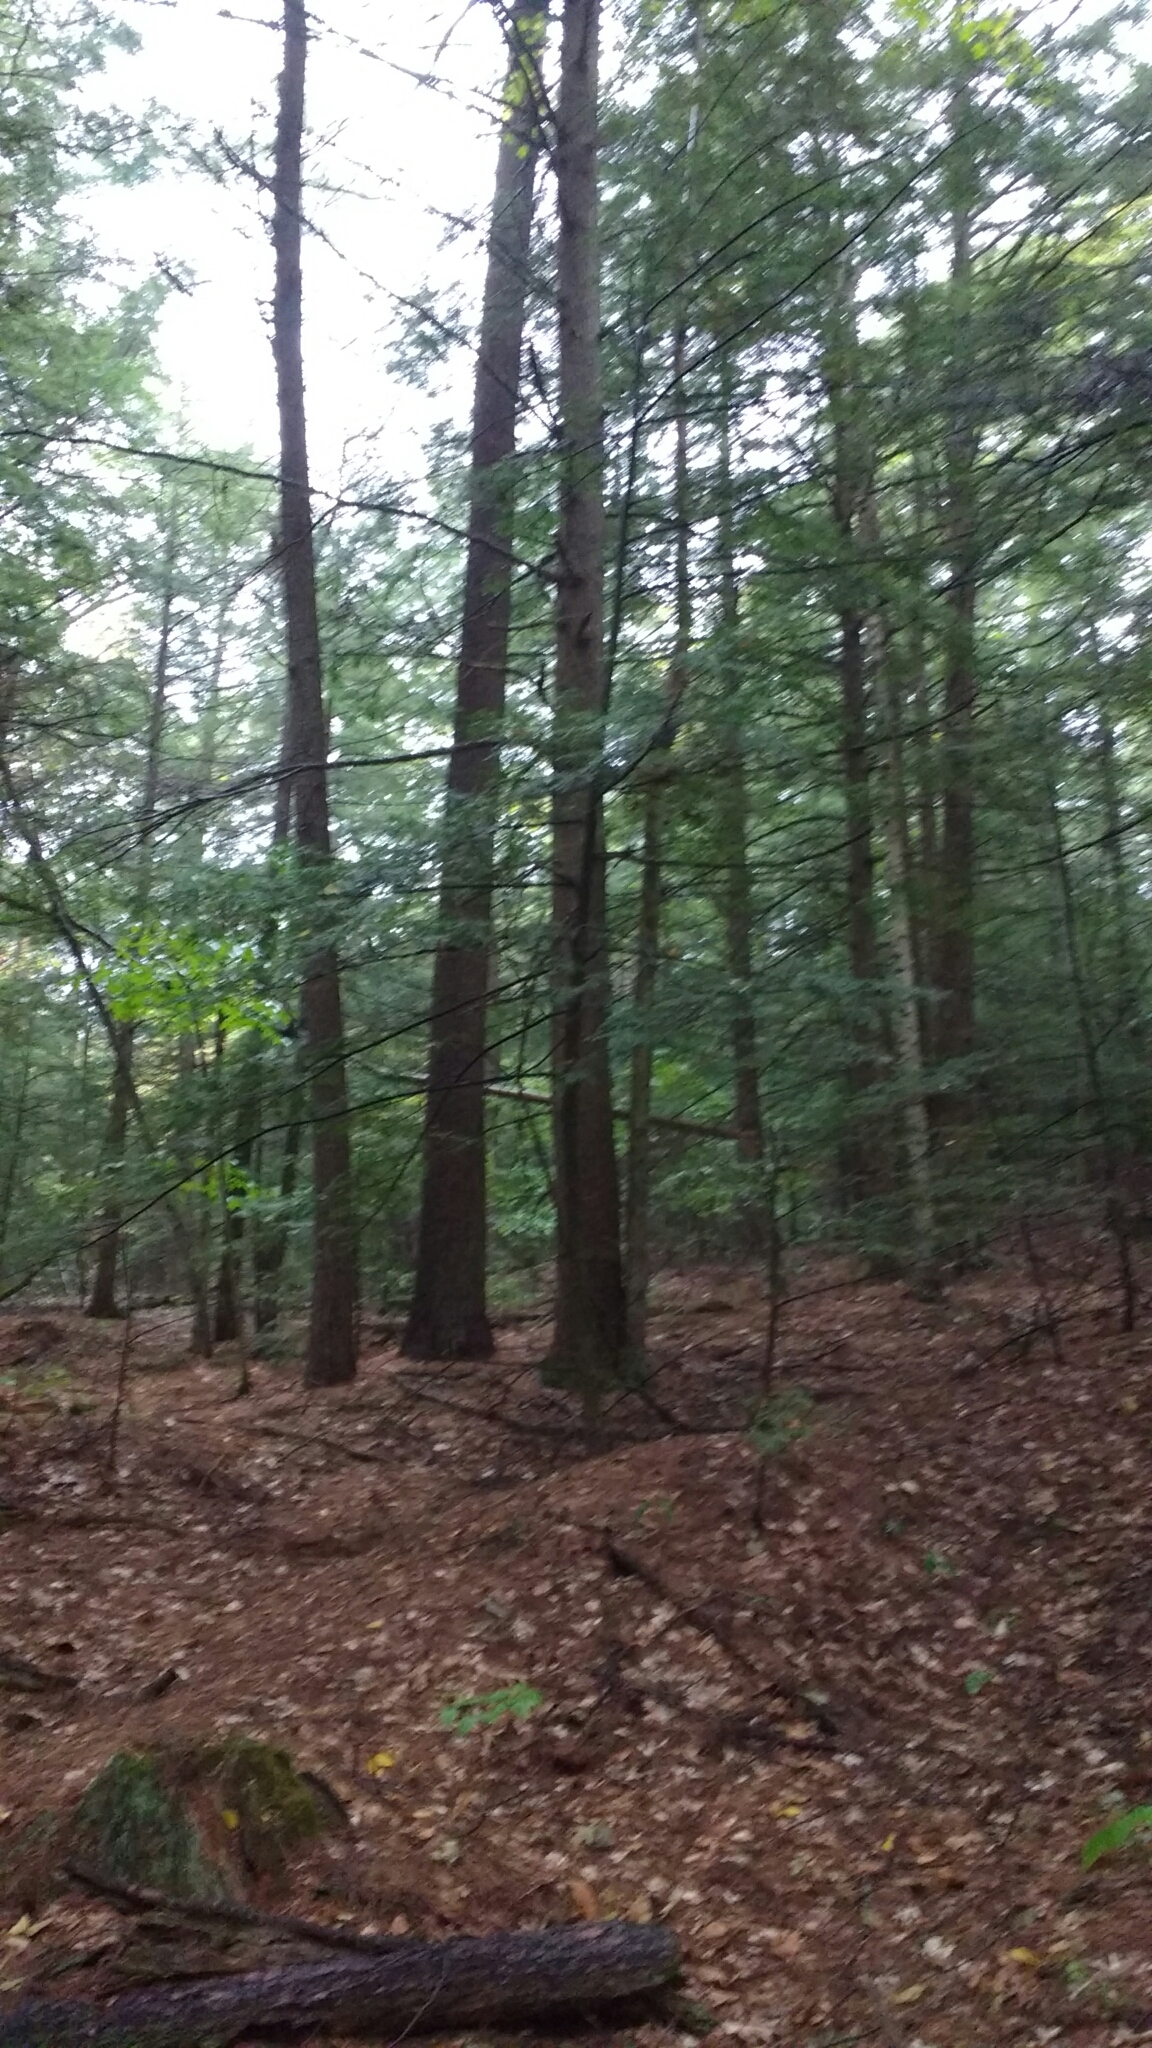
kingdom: Plantae
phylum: Tracheophyta
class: Pinopsida
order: Pinales
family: Pinaceae
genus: Tsuga
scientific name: Tsuga canadensis
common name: Eastern hemlock
